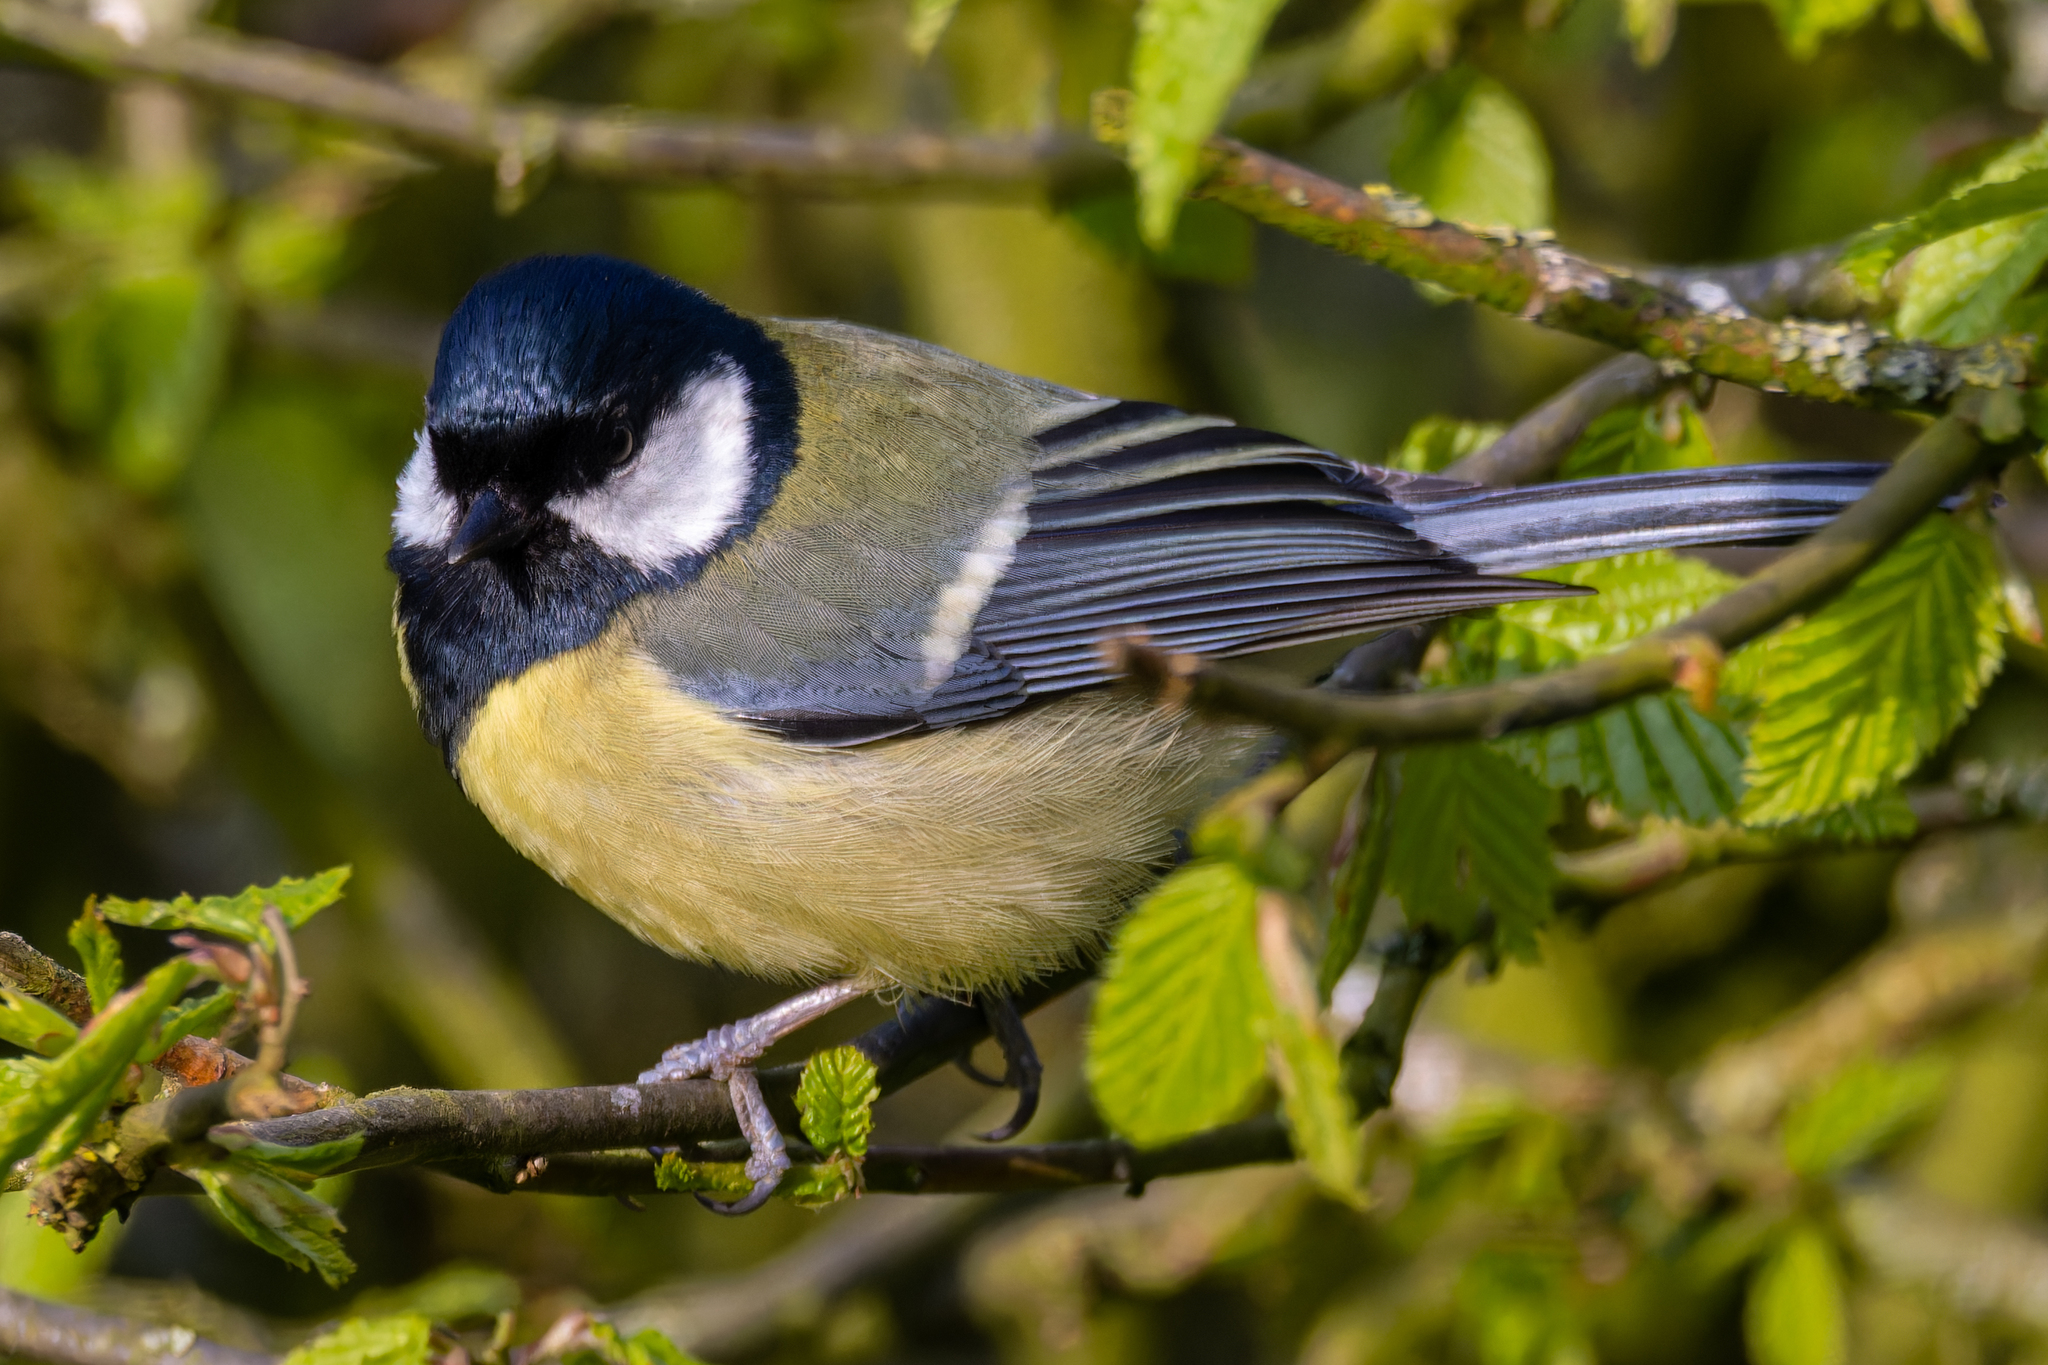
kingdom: Animalia
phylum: Chordata
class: Aves
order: Passeriformes
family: Paridae
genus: Parus
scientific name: Parus major
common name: Great tit
